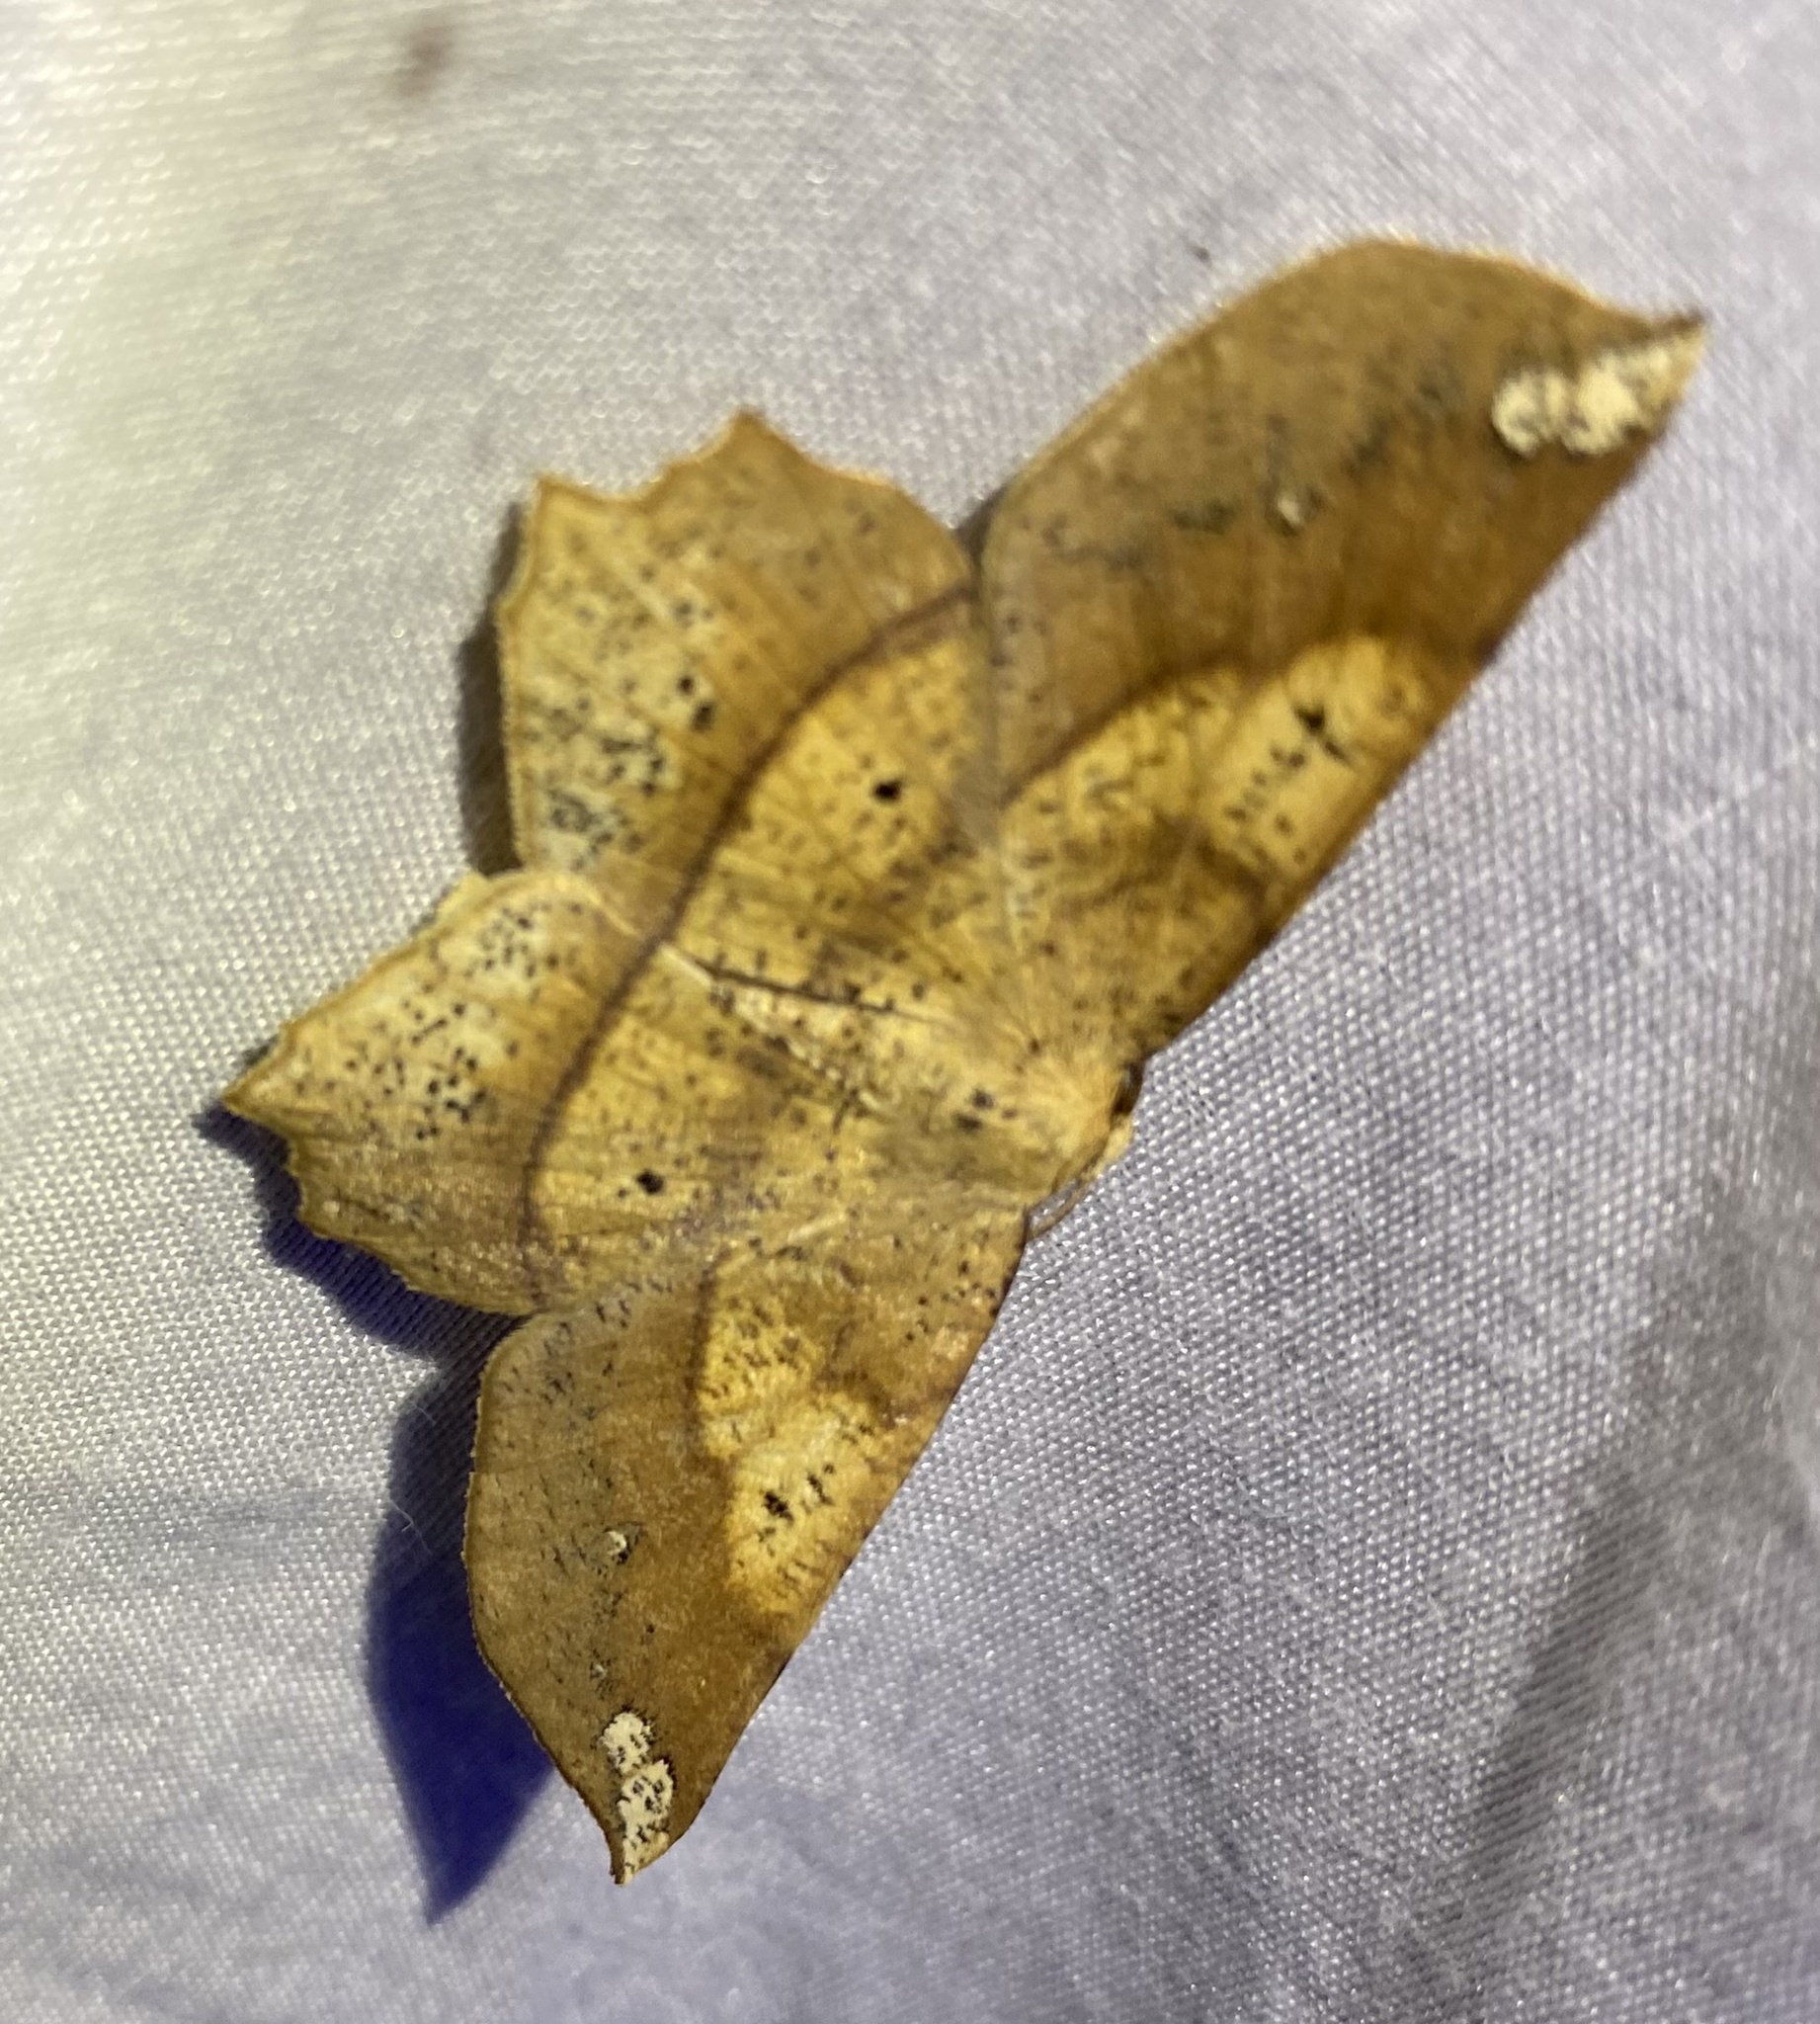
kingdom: Animalia
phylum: Arthropoda
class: Insecta
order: Lepidoptera
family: Geometridae
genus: Euchlaena
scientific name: Euchlaena amoenaria
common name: Deep yellow euchlaena
